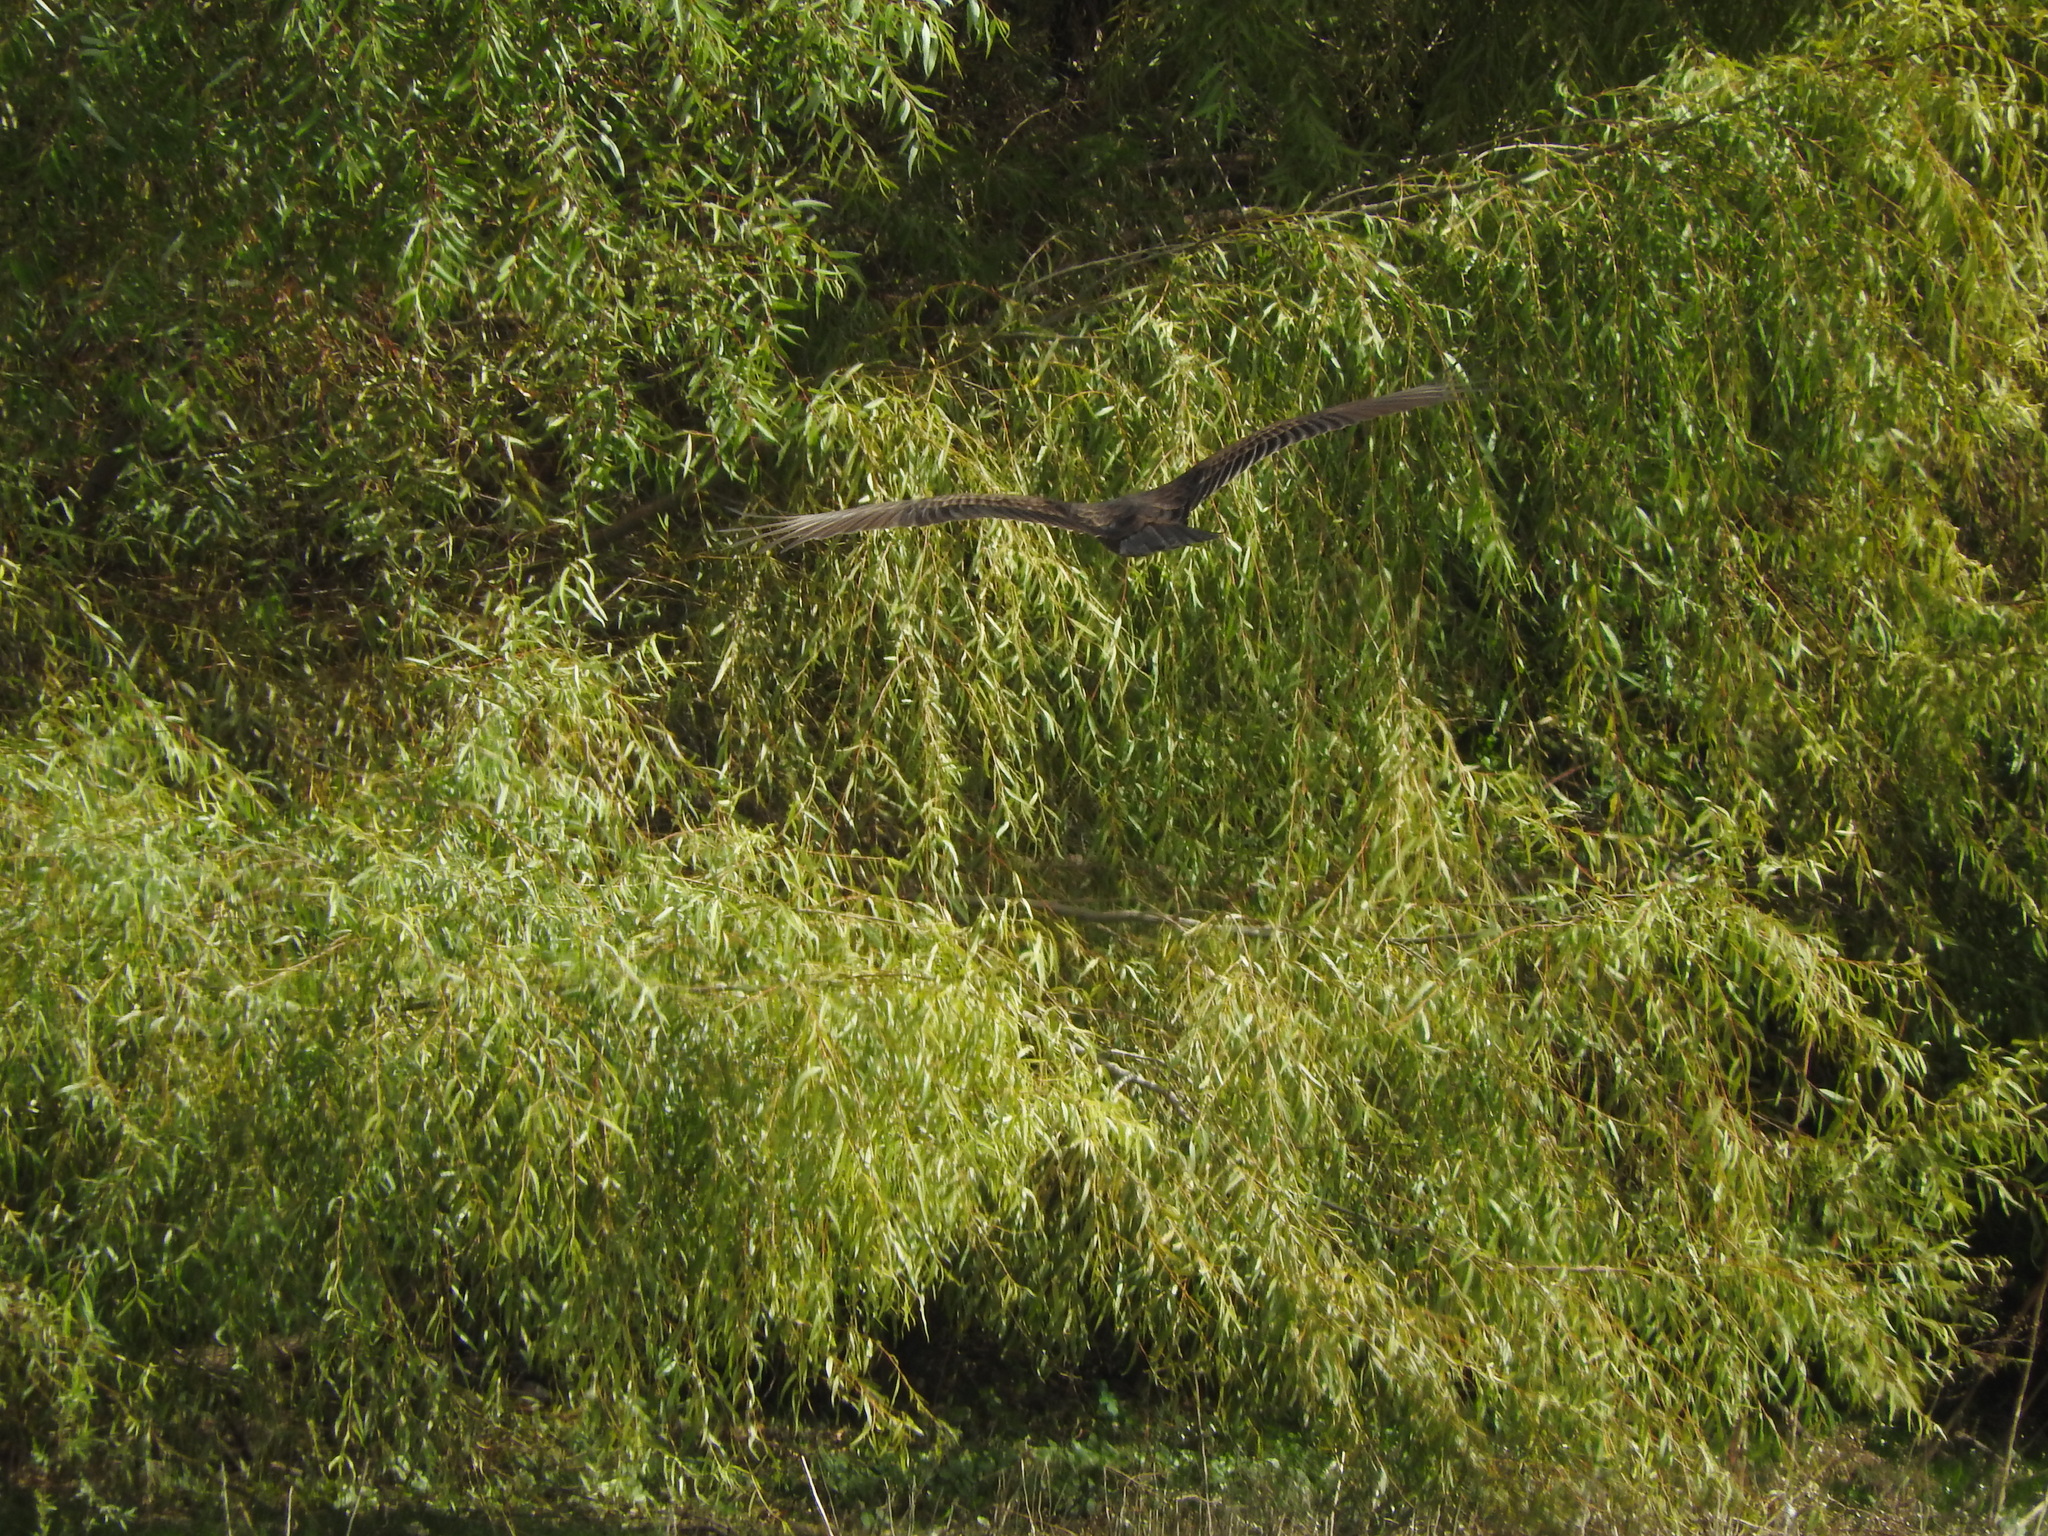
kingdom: Animalia
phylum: Chordata
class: Aves
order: Accipitriformes
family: Cathartidae
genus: Cathartes
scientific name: Cathartes aura
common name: Turkey vulture
